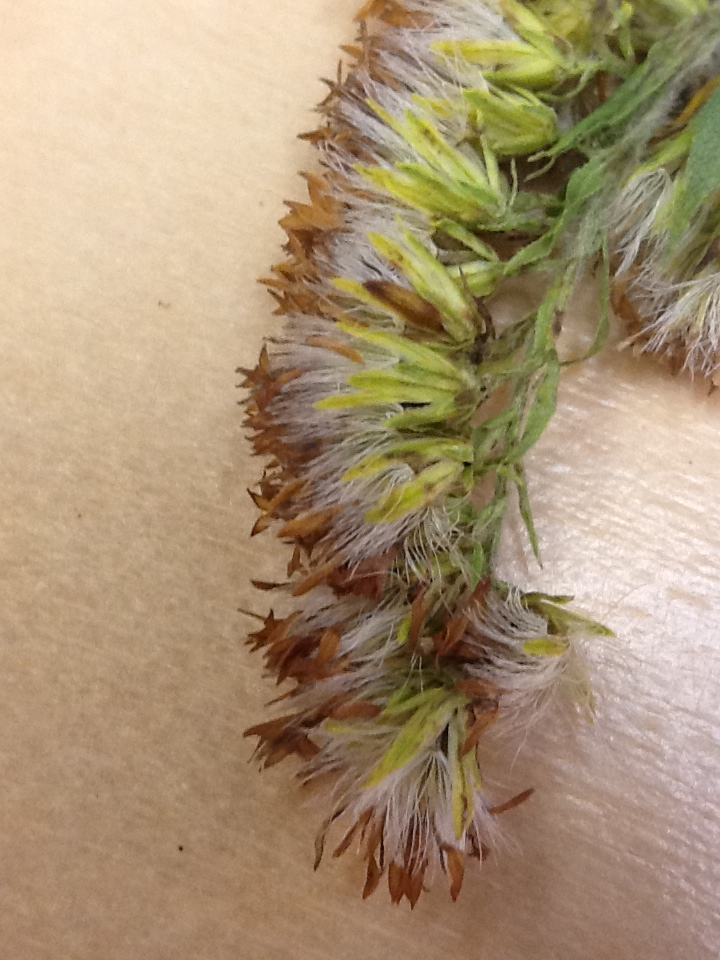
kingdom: Plantae
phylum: Tracheophyta
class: Magnoliopsida
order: Asterales
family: Asteraceae
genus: Solidago
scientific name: Solidago rugosa
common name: Rough-stemmed goldenrod
